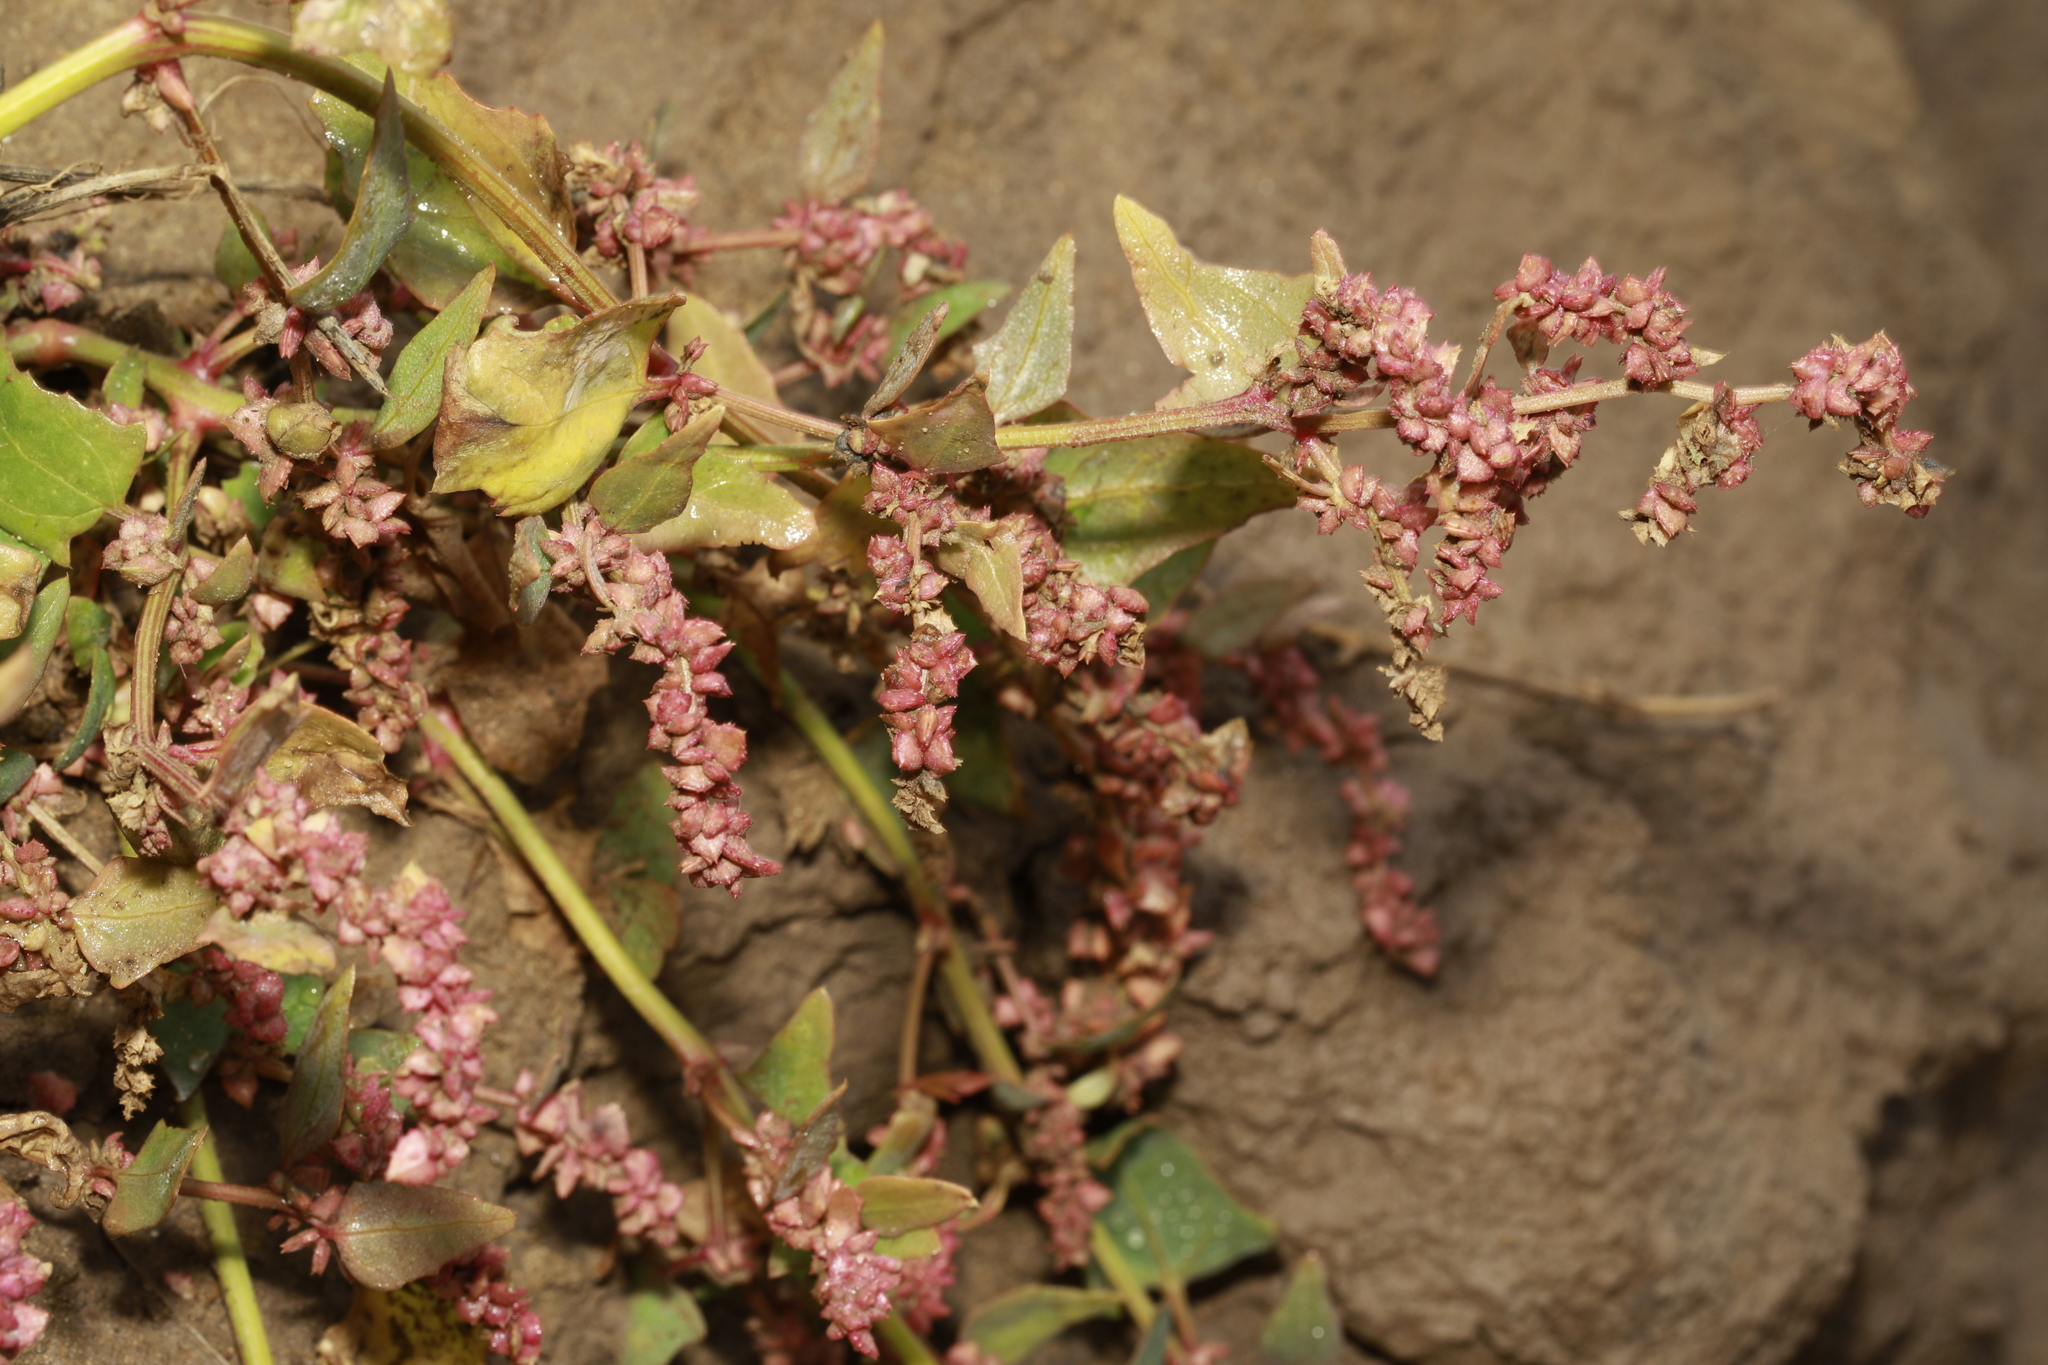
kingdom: Plantae
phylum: Tracheophyta
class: Magnoliopsida
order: Caryophyllales
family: Amaranthaceae
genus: Atriplex
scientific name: Atriplex prostrata
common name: Spear-leaved orache
